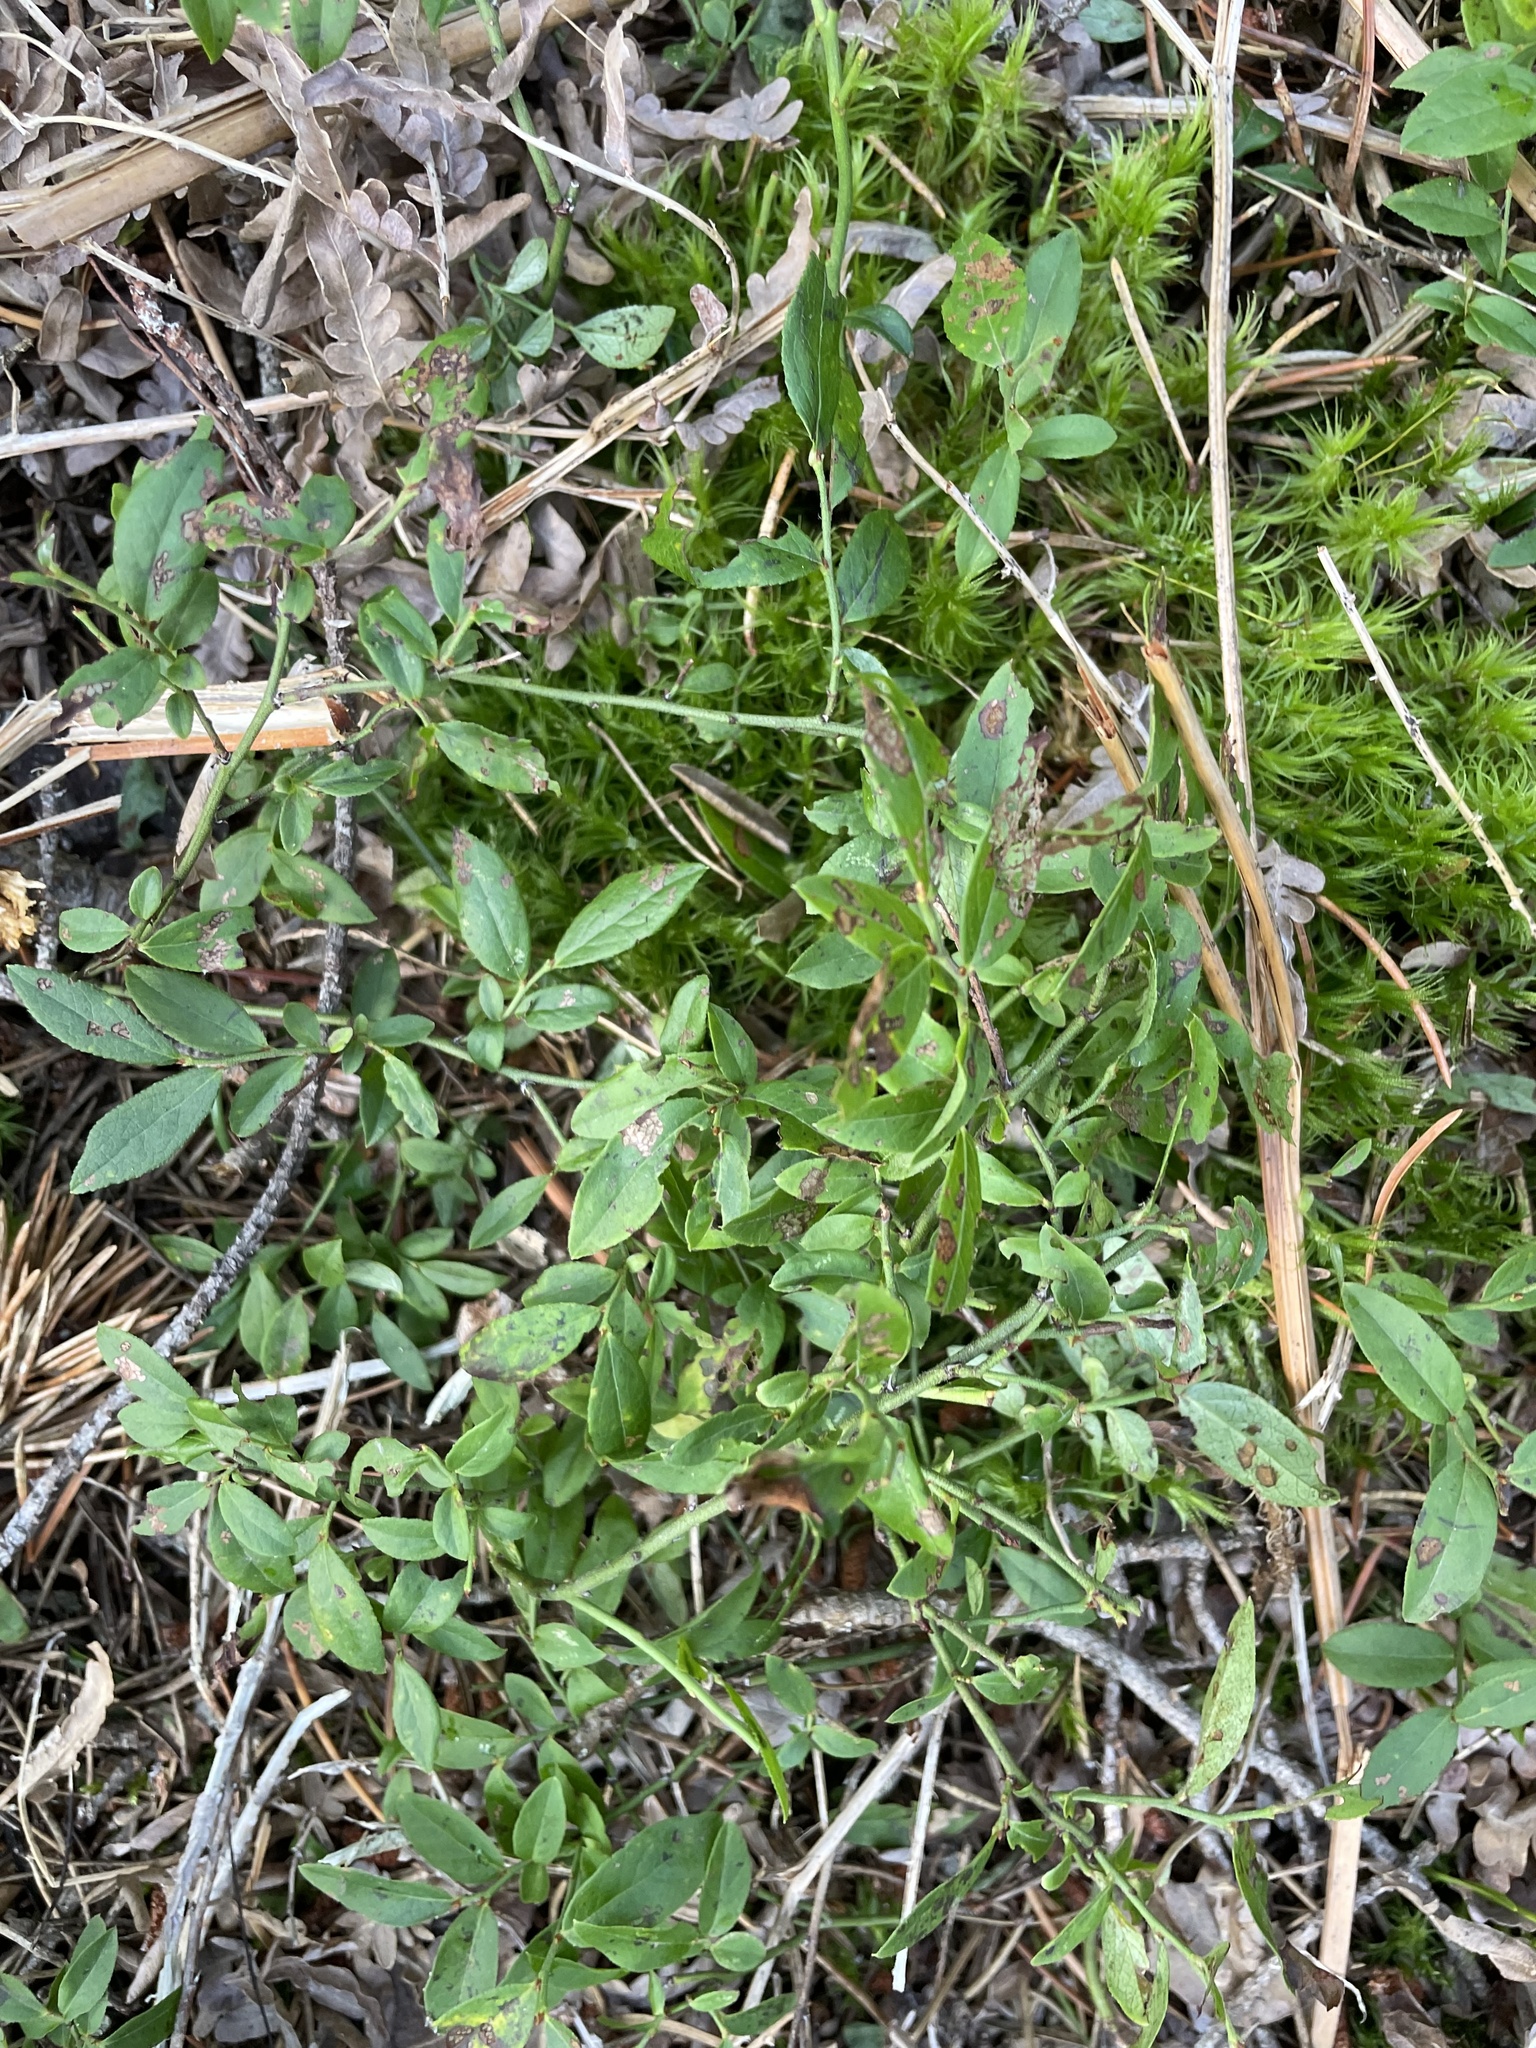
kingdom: Plantae
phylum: Tracheophyta
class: Magnoliopsida
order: Ericales
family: Ericaceae
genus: Vaccinium
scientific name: Vaccinium angustifolium
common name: Early lowbush blueberry
